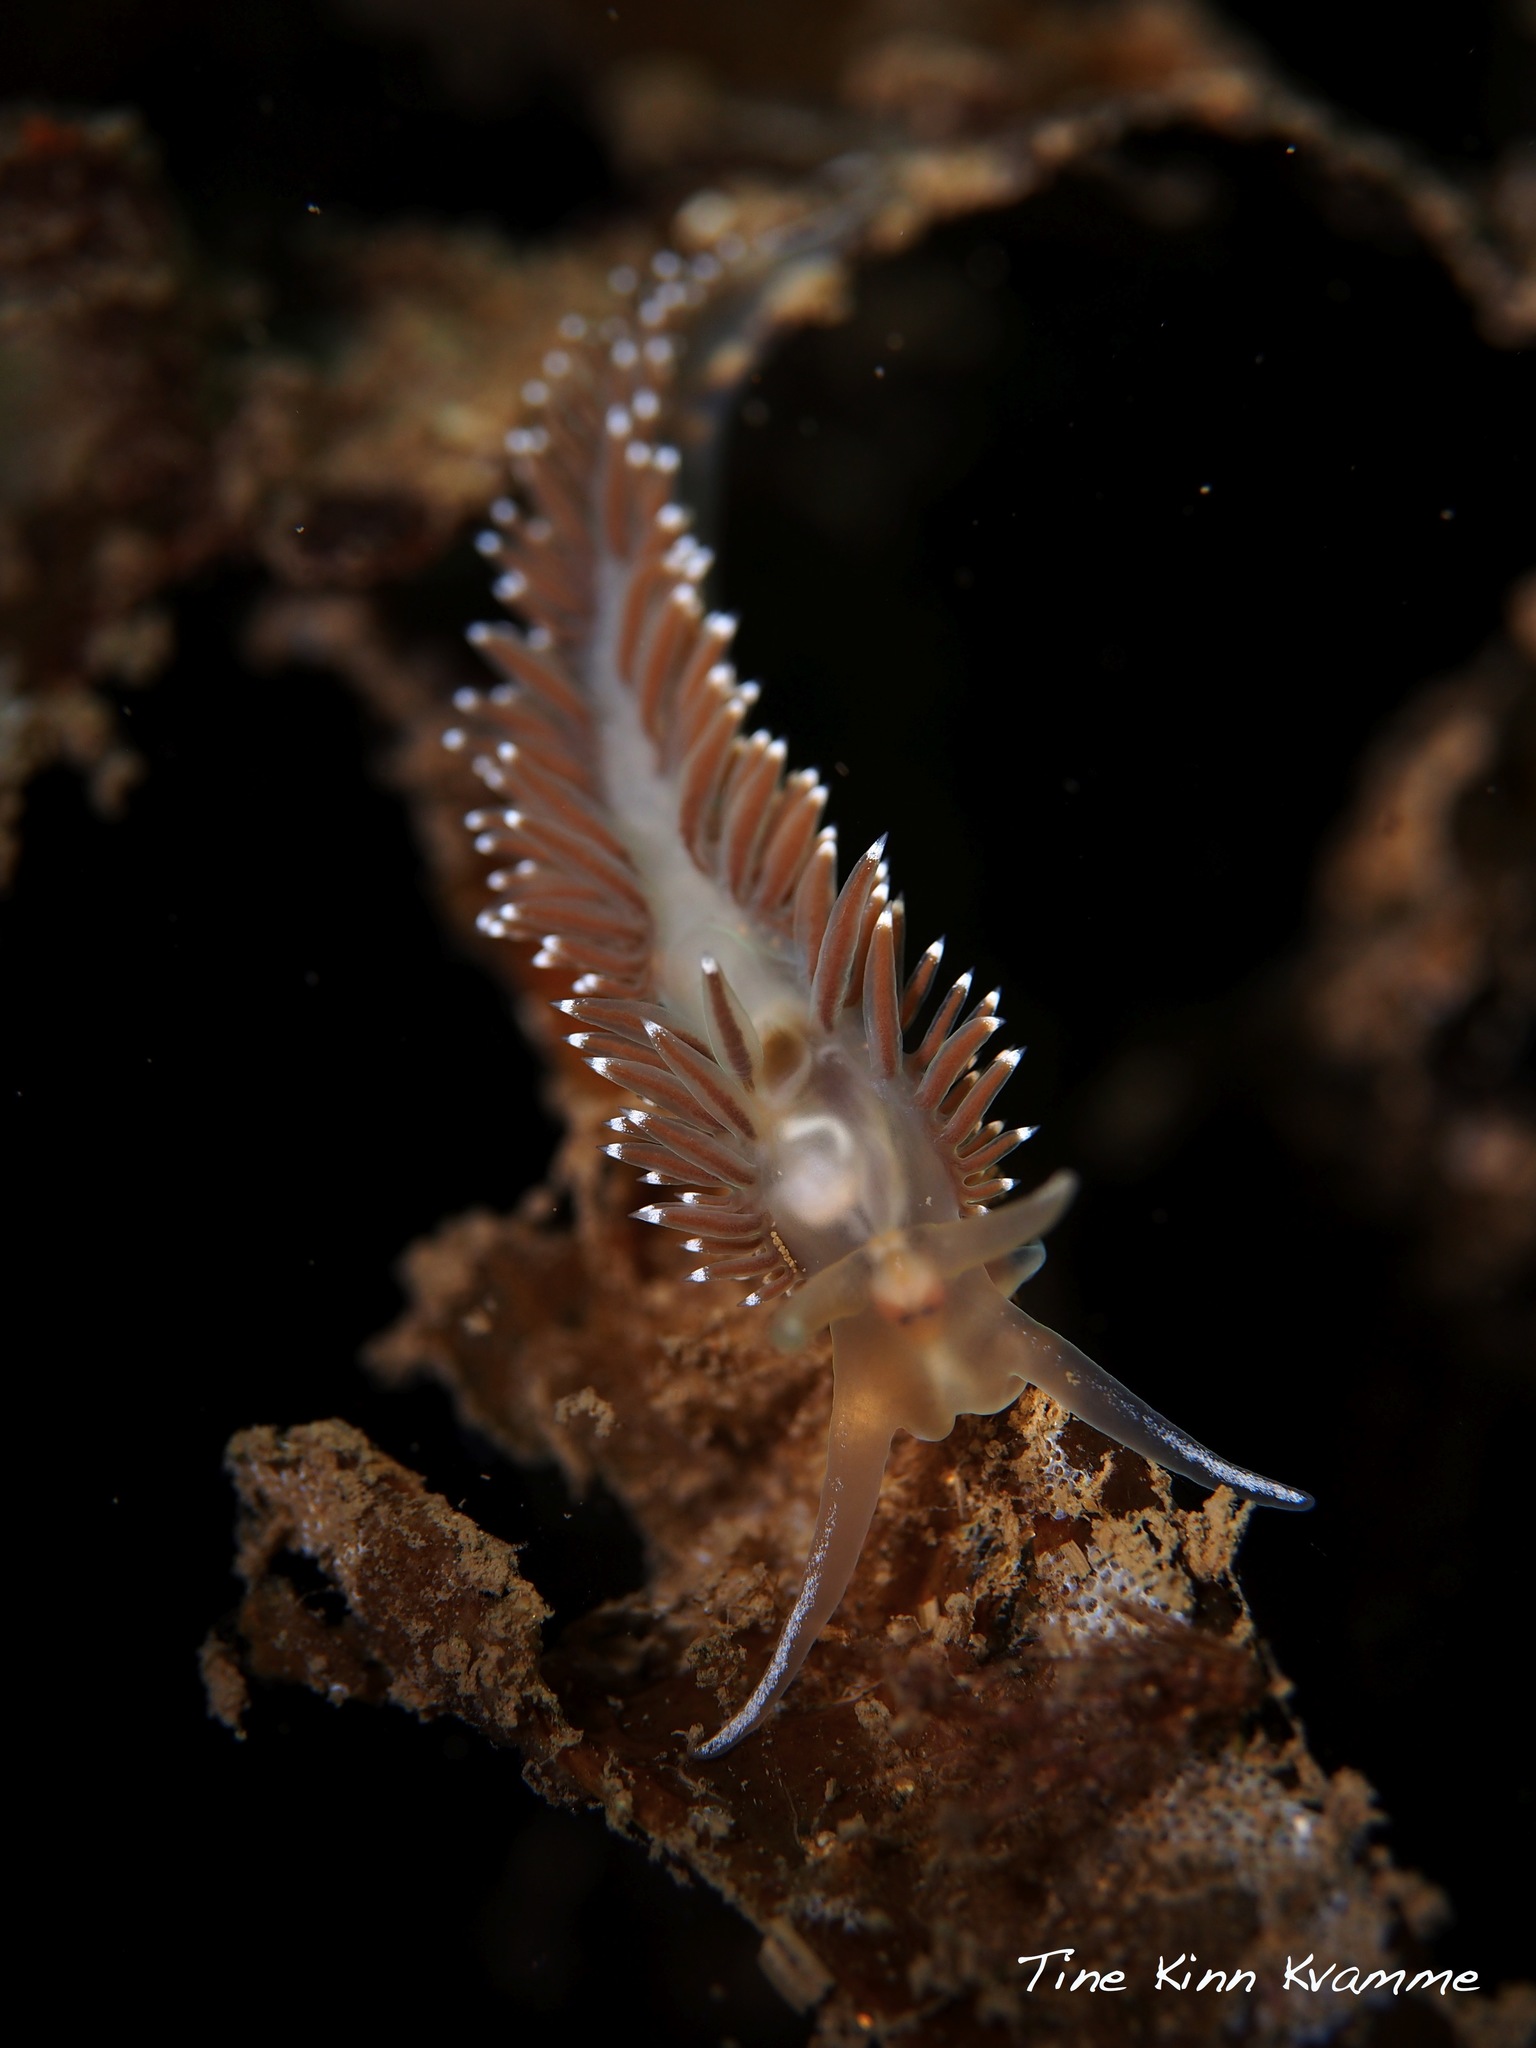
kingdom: Animalia
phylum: Mollusca
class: Gastropoda
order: Nudibranchia
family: Coryphellidae
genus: Coryphella
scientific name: Coryphella nobilis
